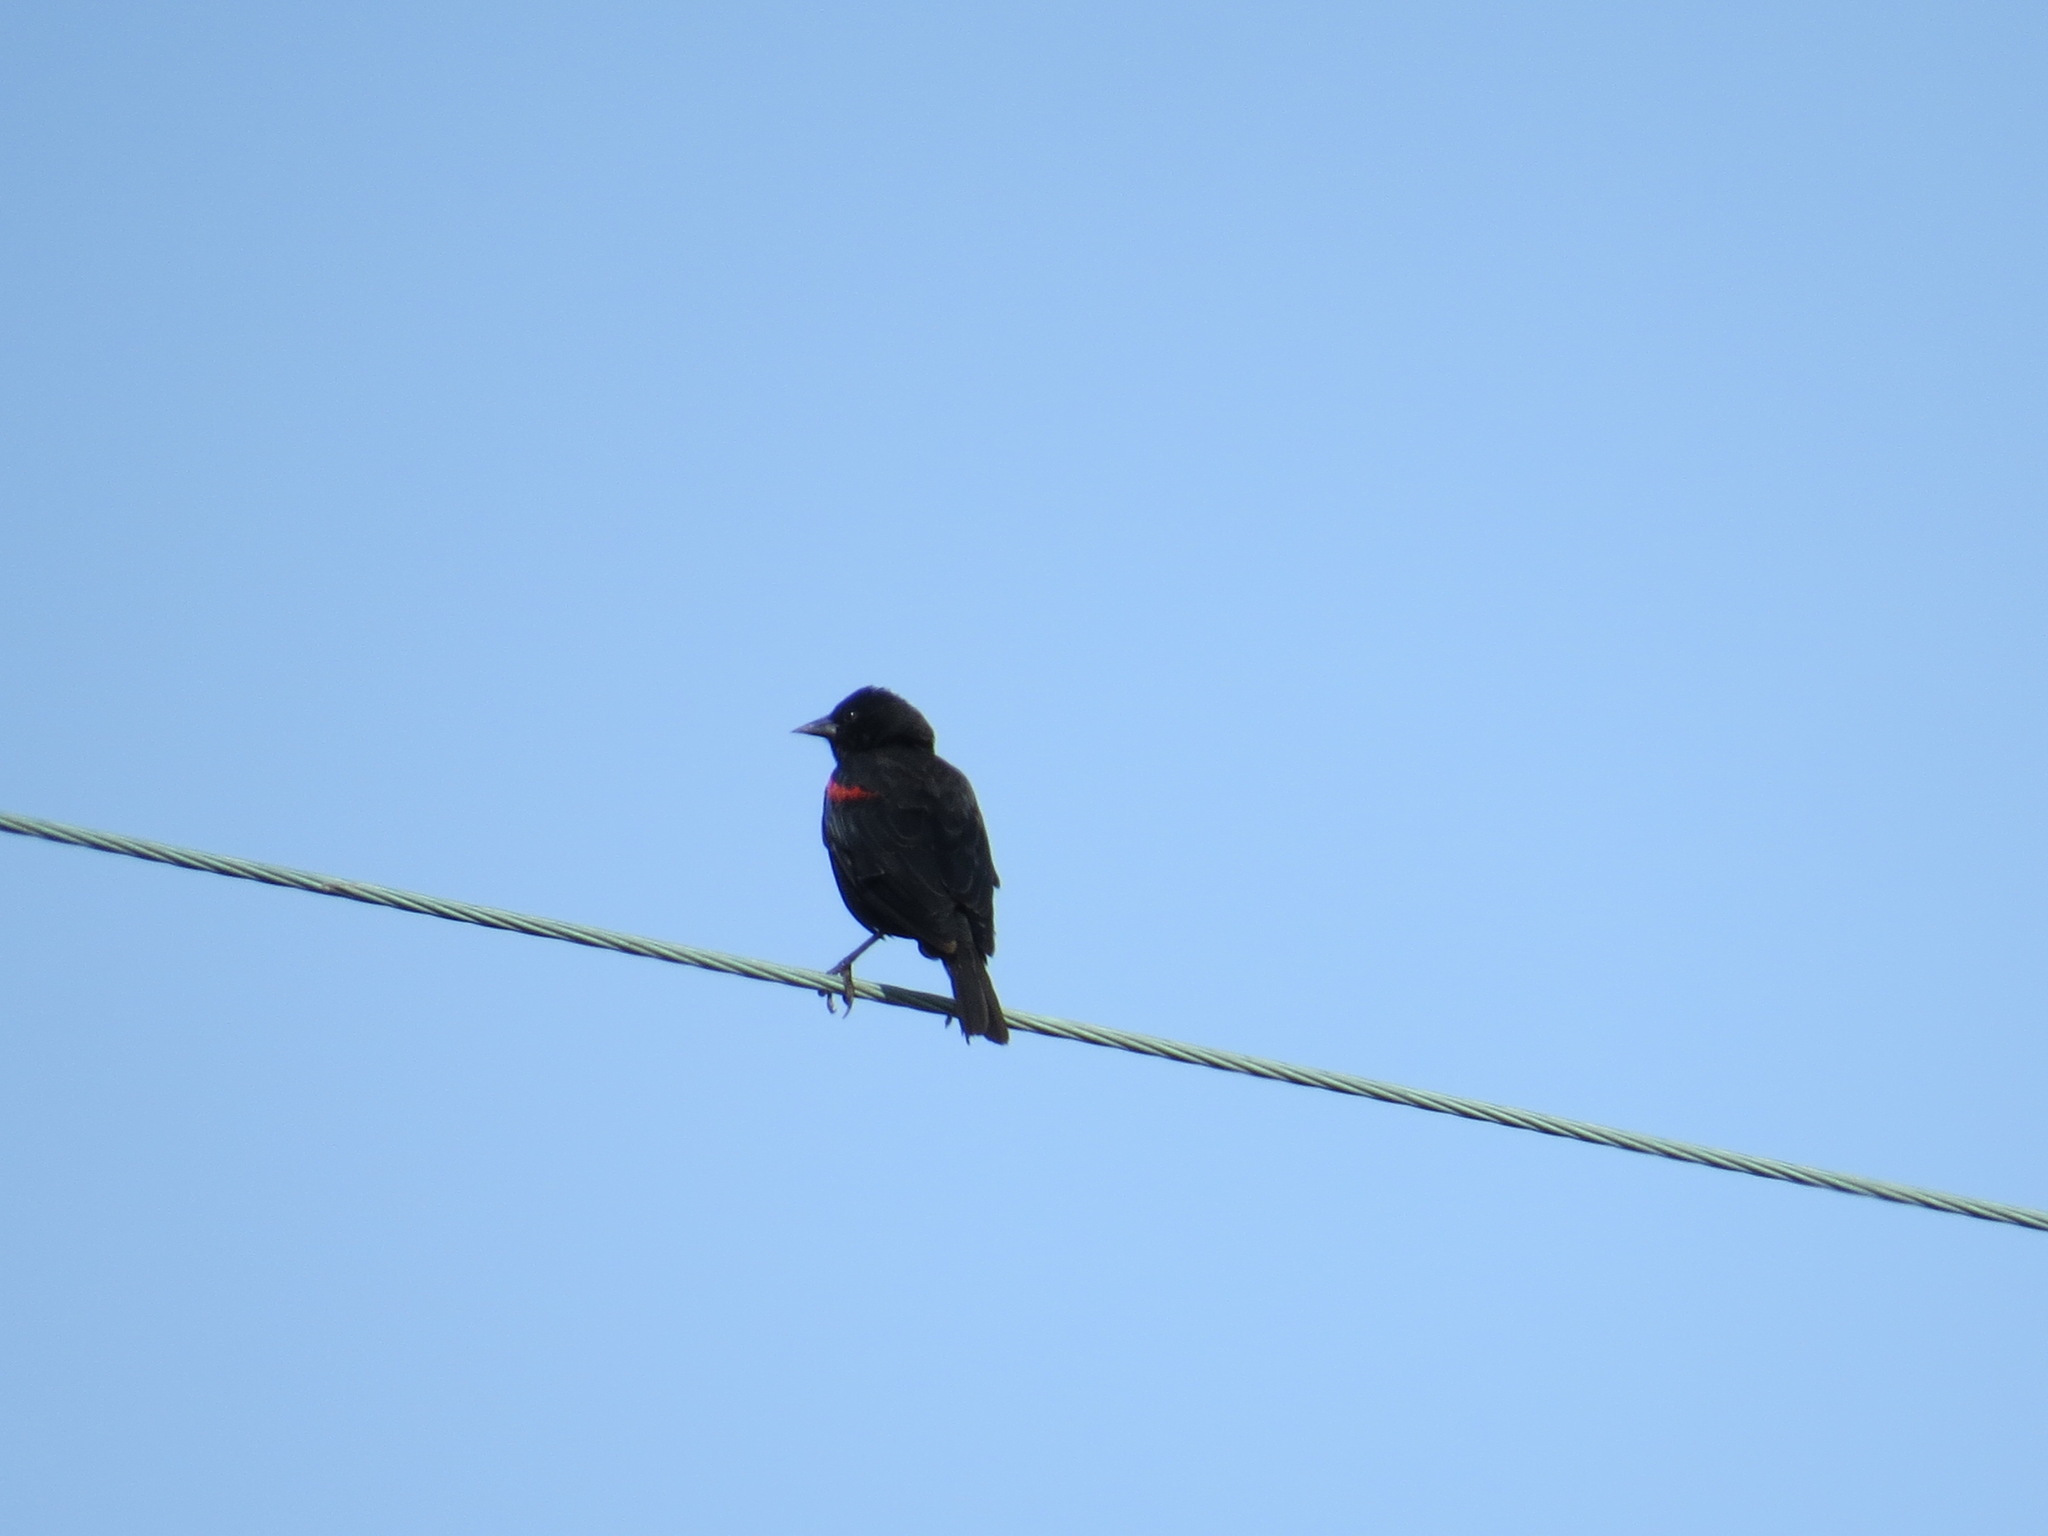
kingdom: Animalia
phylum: Chordata
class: Aves
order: Passeriformes
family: Icteridae
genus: Agelaius
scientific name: Agelaius phoeniceus
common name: Red-winged blackbird
